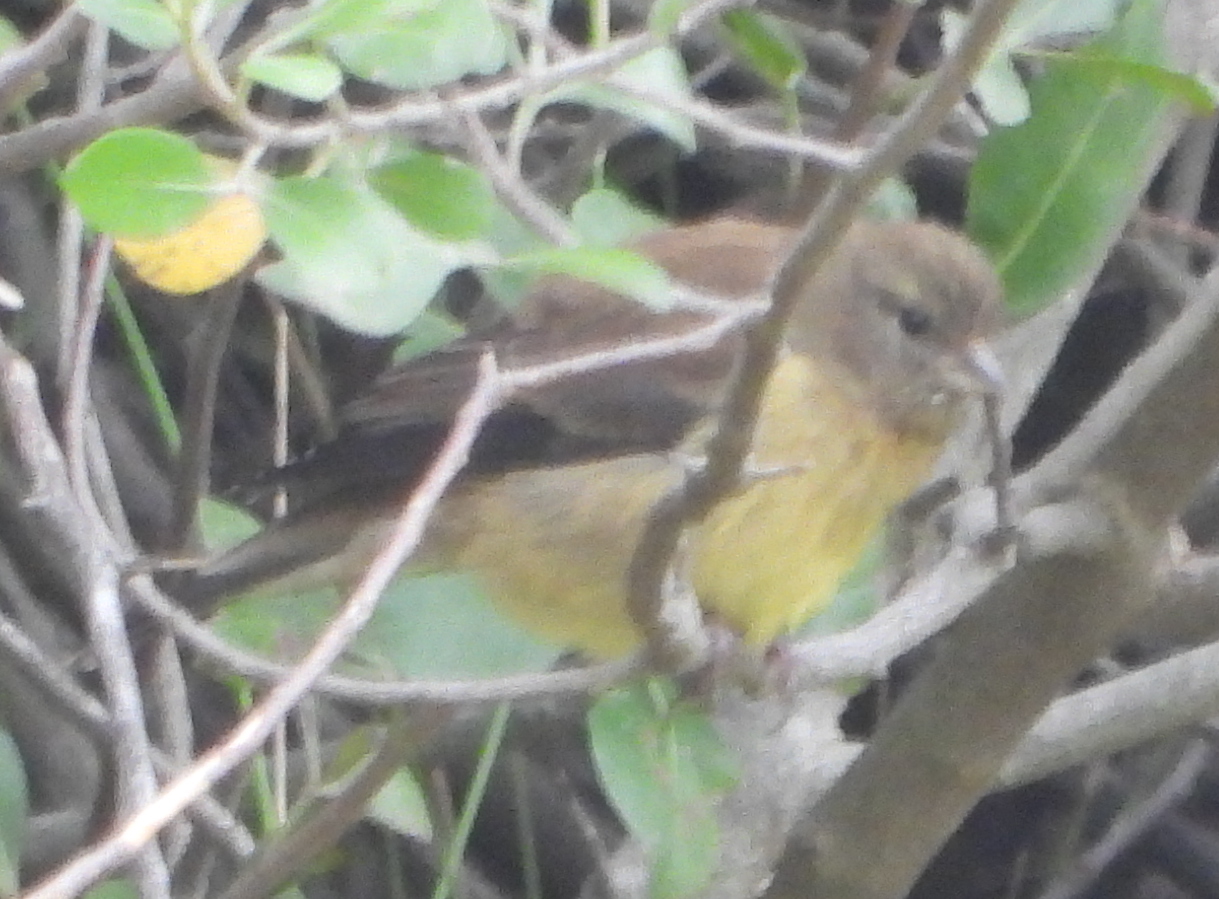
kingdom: Animalia
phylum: Chordata
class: Aves
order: Passeriformes
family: Fringillidae
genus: Crithagra
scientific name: Crithagra totta
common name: Cape siskin
